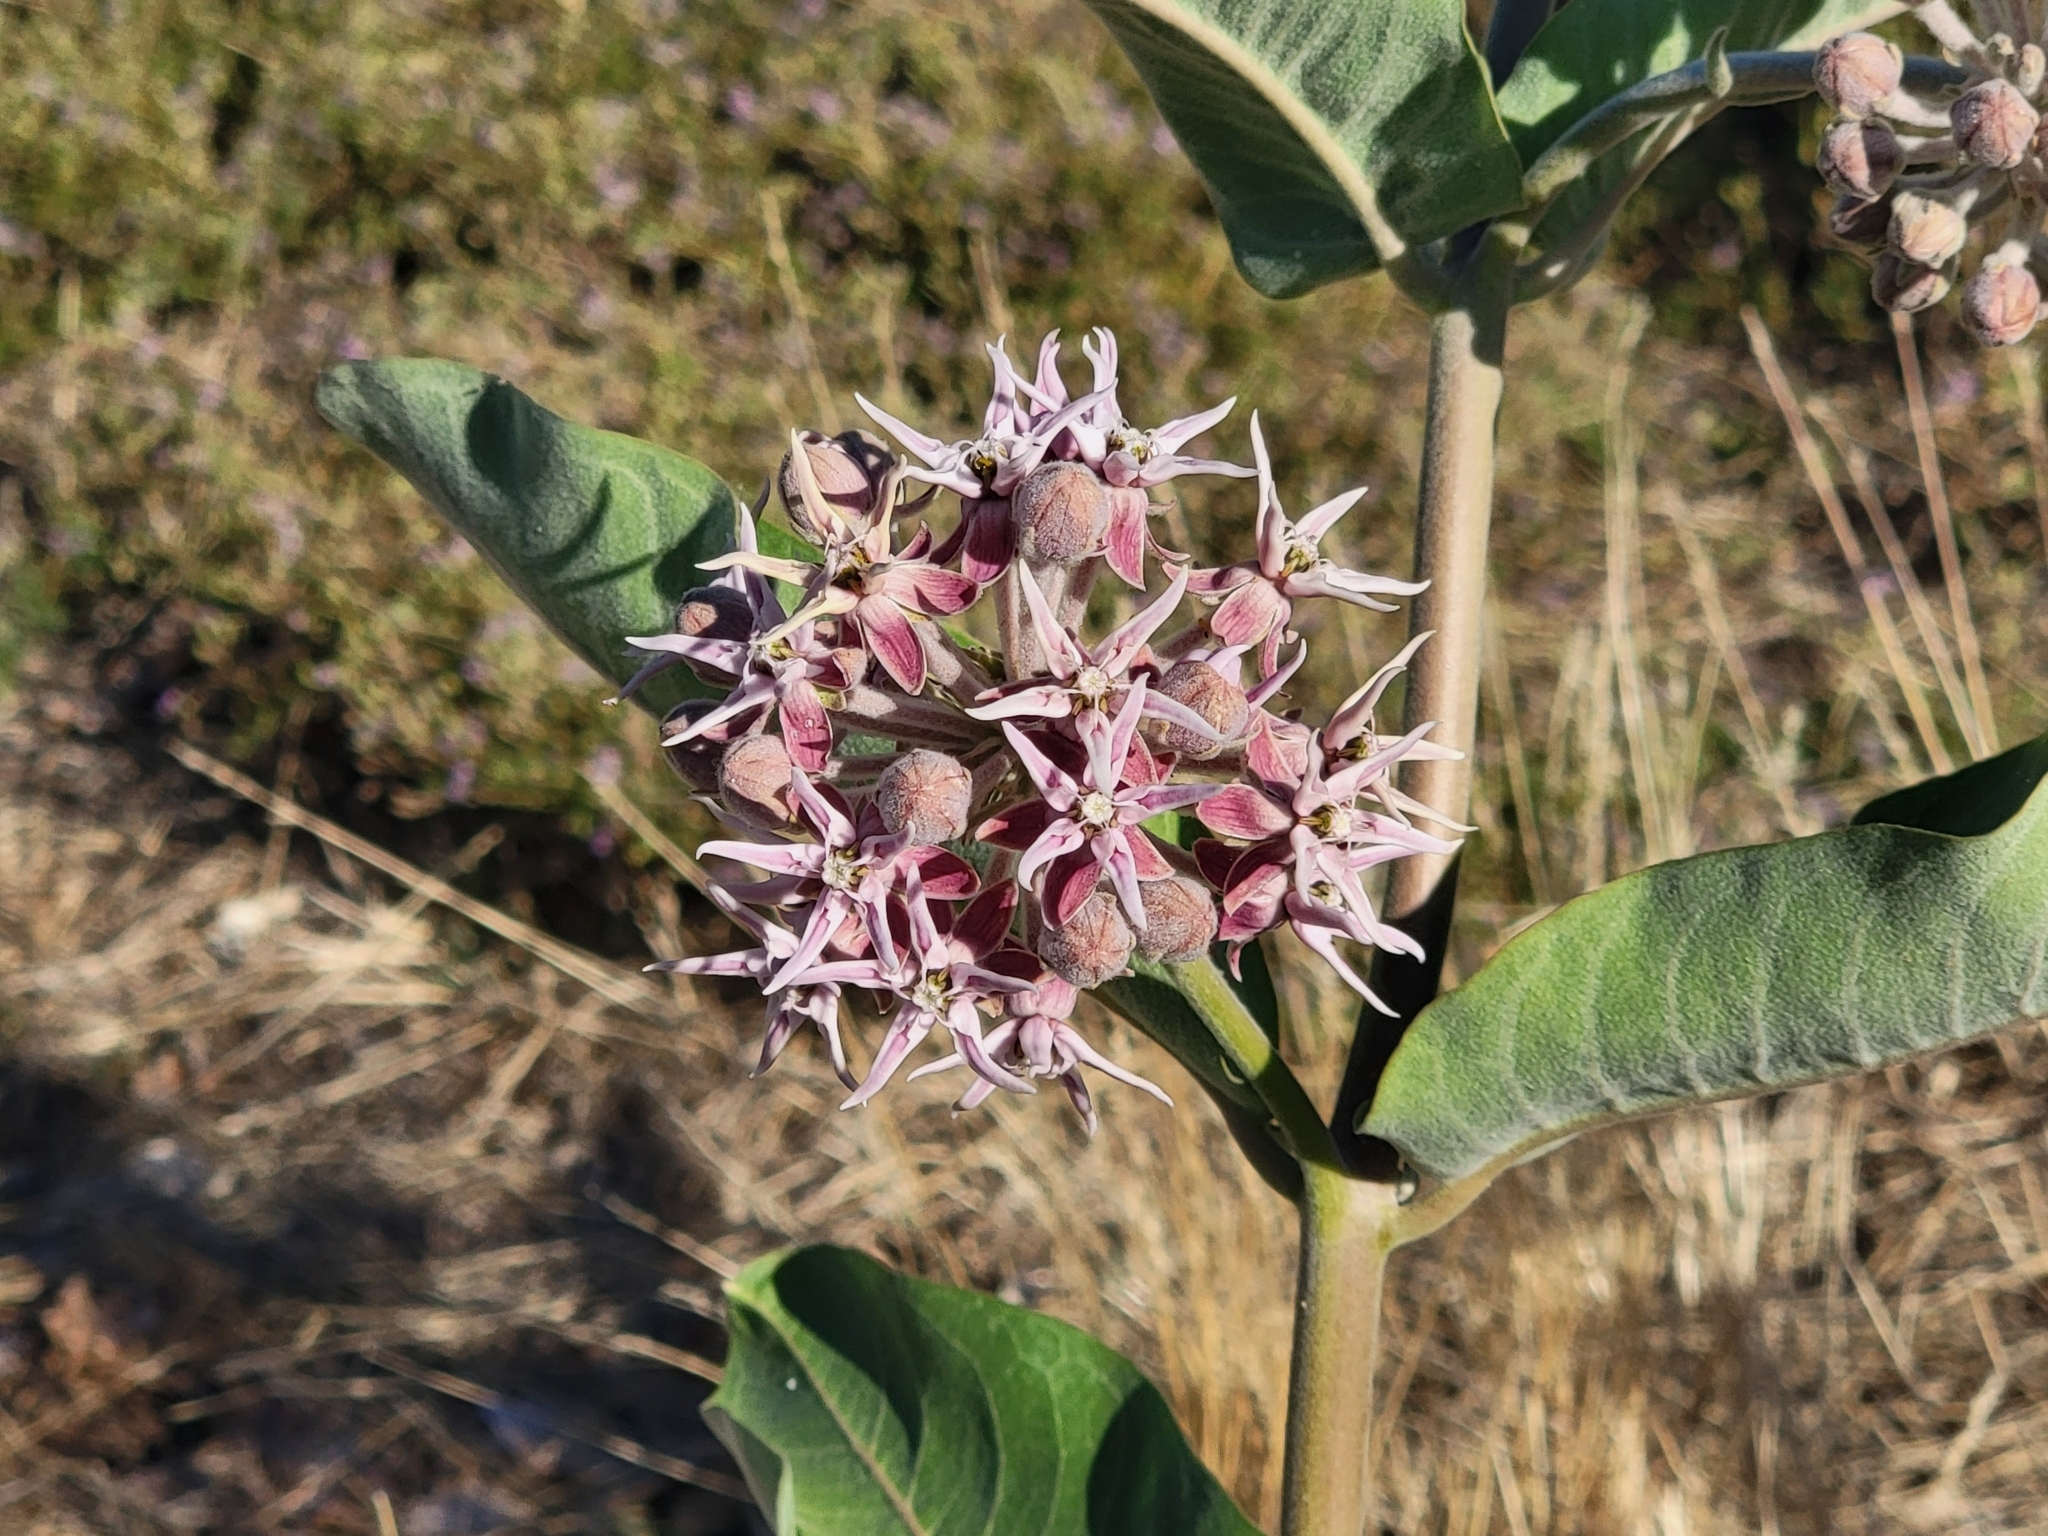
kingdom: Plantae
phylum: Tracheophyta
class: Magnoliopsida
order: Gentianales
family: Apocynaceae
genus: Asclepias
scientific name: Asclepias speciosa
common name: Showy milkweed
